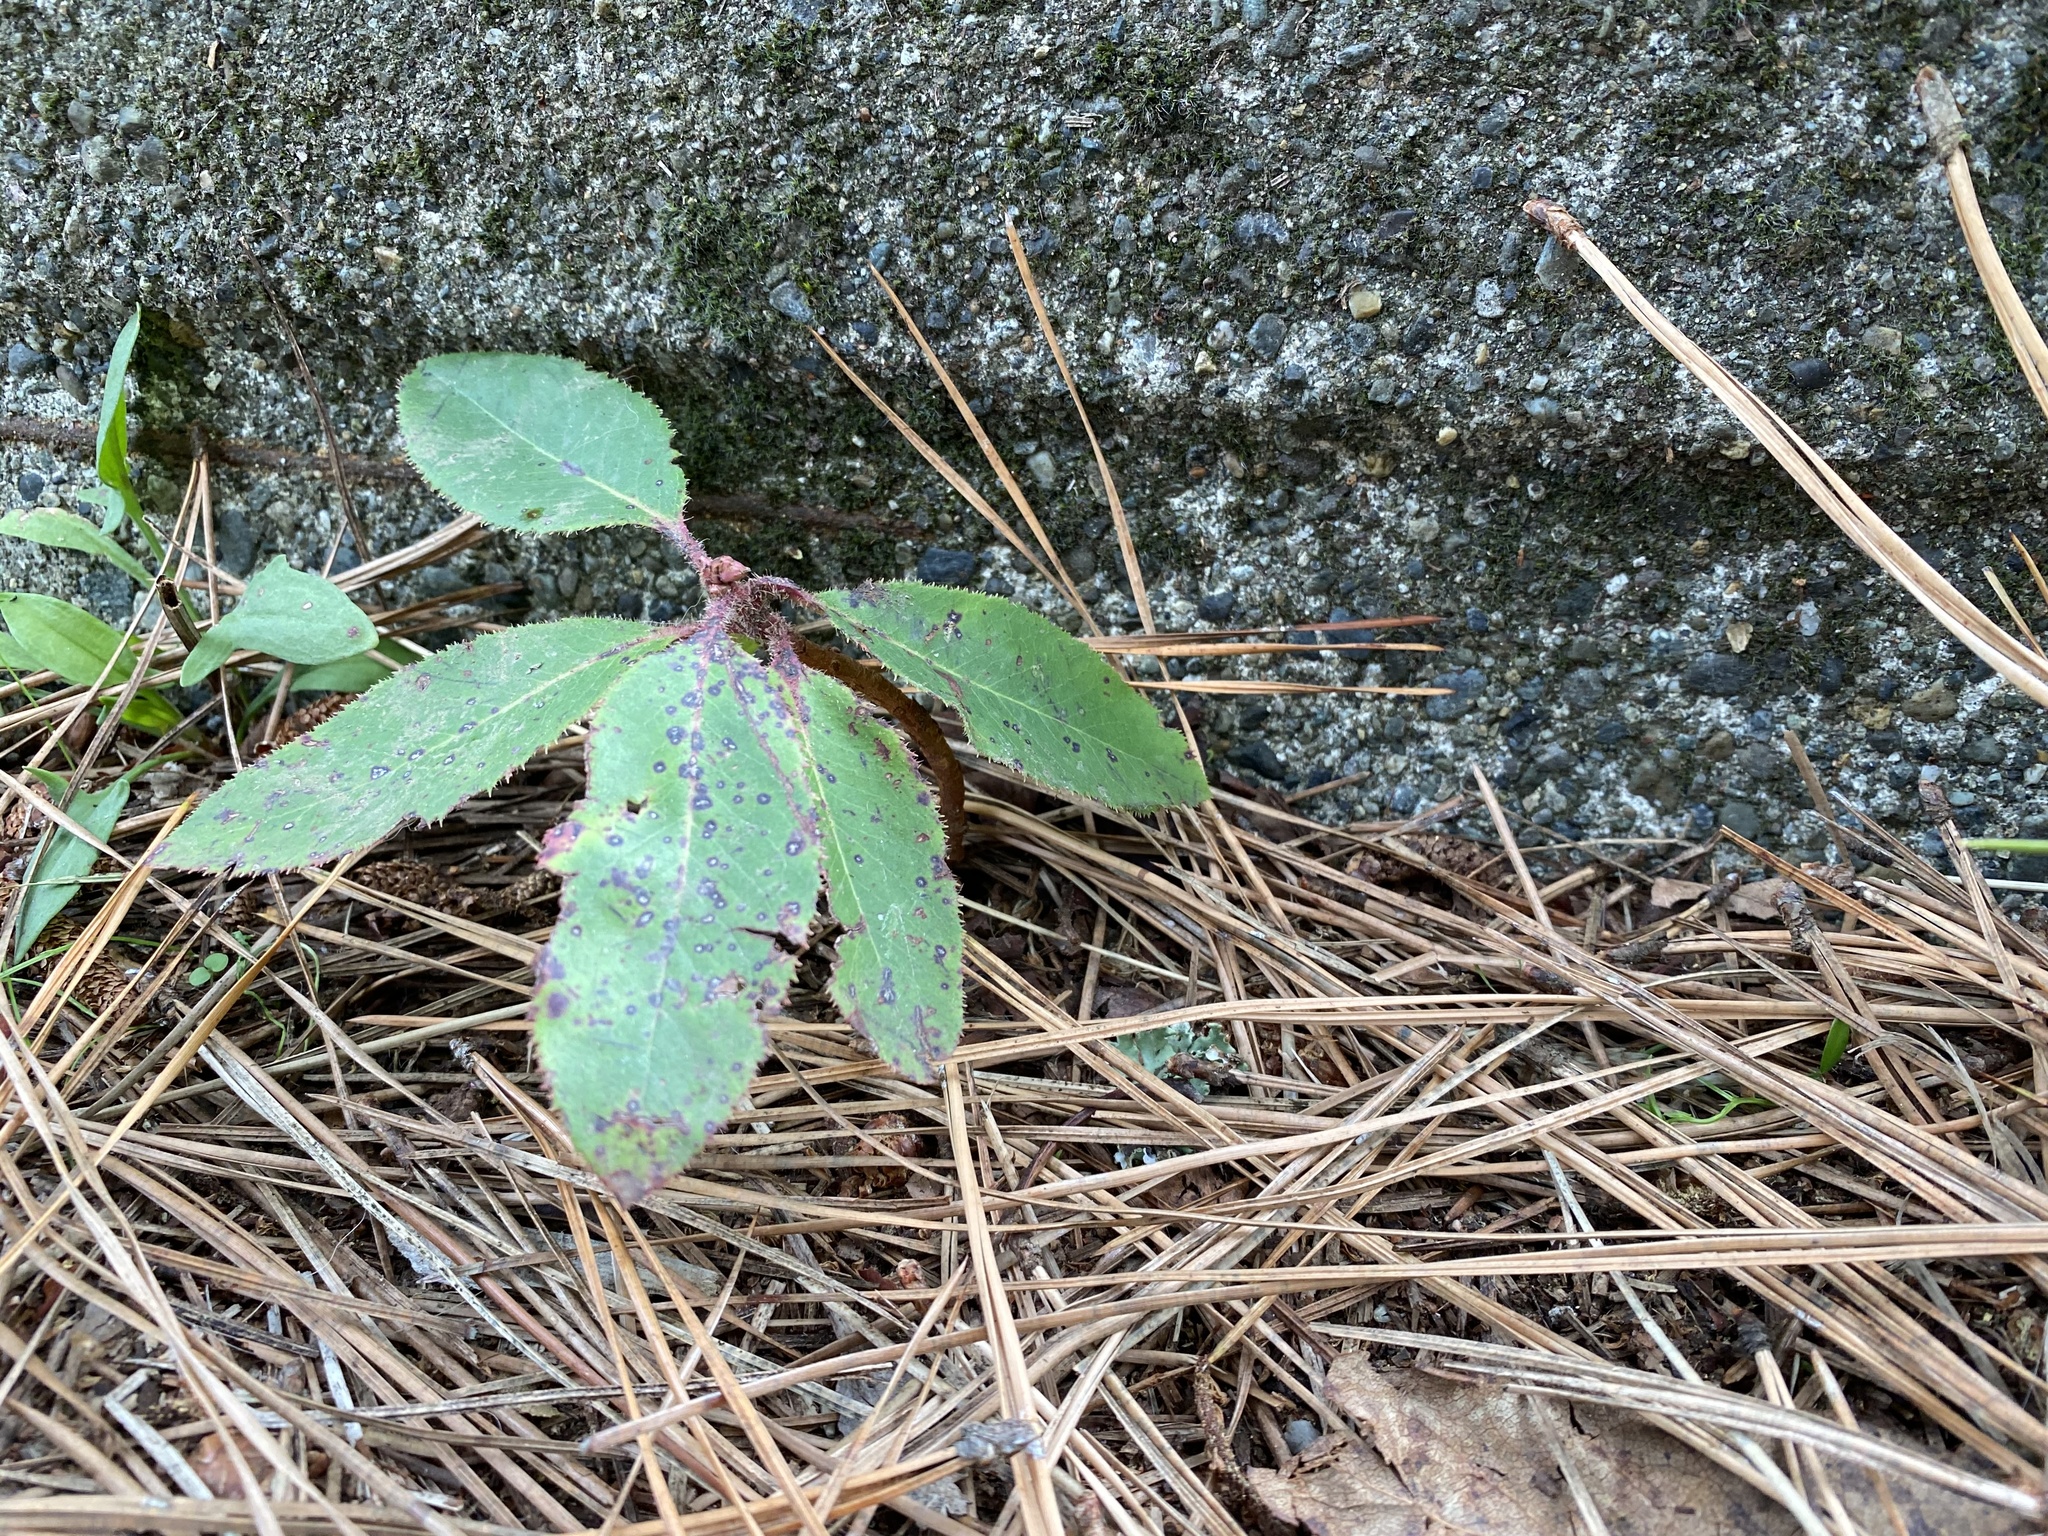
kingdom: Plantae
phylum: Tracheophyta
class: Magnoliopsida
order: Ericales
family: Ericaceae
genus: Arbutus
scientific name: Arbutus menziesii
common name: Pacific madrone
